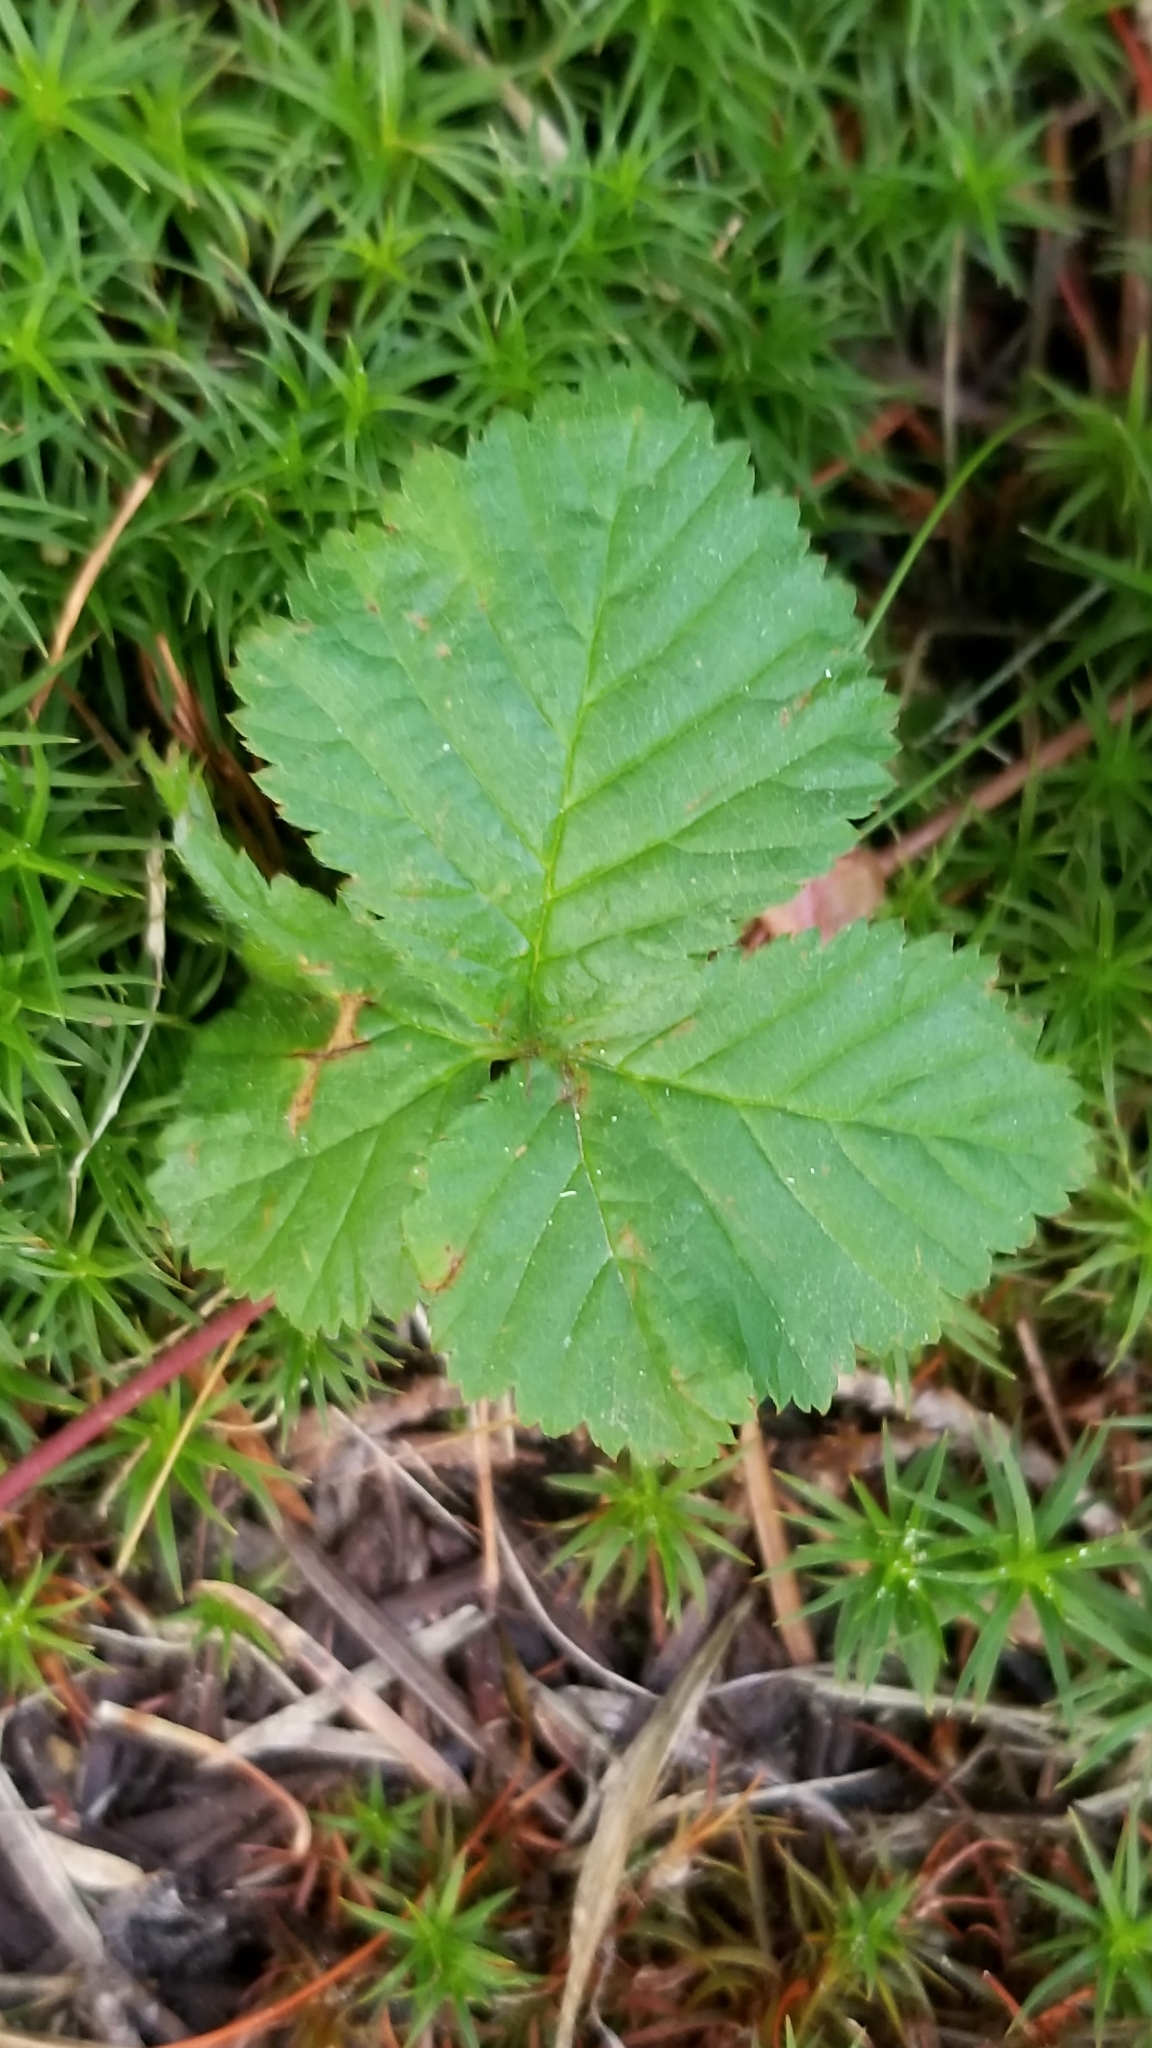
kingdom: Plantae
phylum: Tracheophyta
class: Magnoliopsida
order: Rosales
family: Rosaceae
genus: Rubus
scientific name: Rubus lasiococcus
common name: Dwarf bramble
